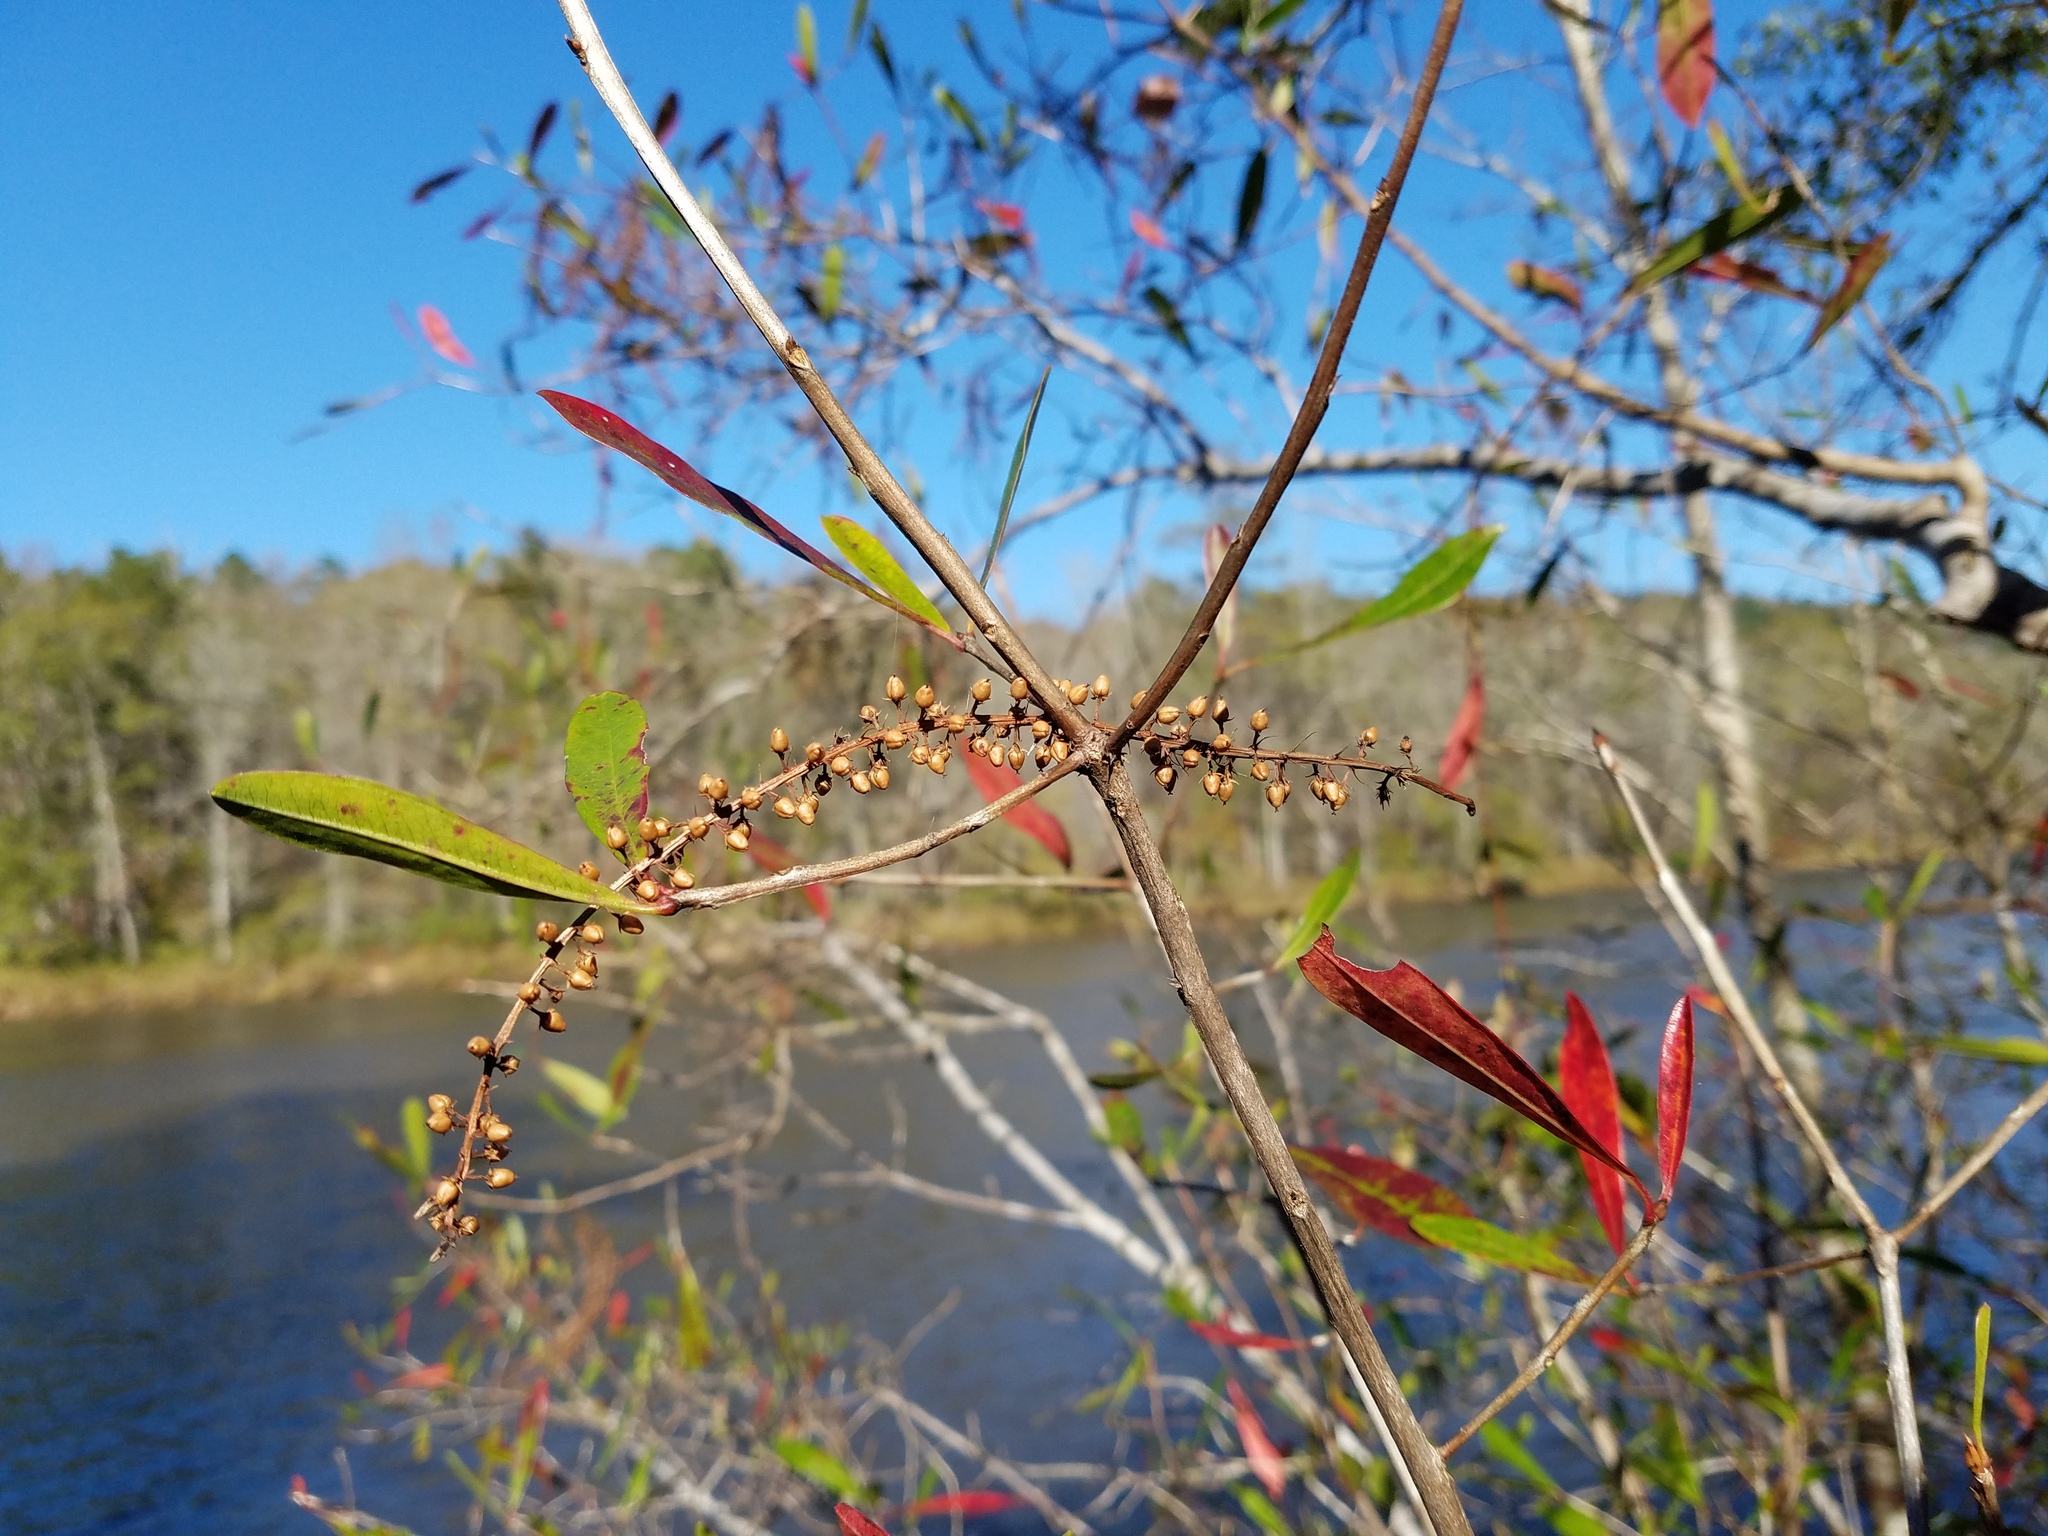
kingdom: Plantae
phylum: Tracheophyta
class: Magnoliopsida
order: Ericales
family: Cyrillaceae
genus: Cyrilla
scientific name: Cyrilla racemiflora
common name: Black titi
